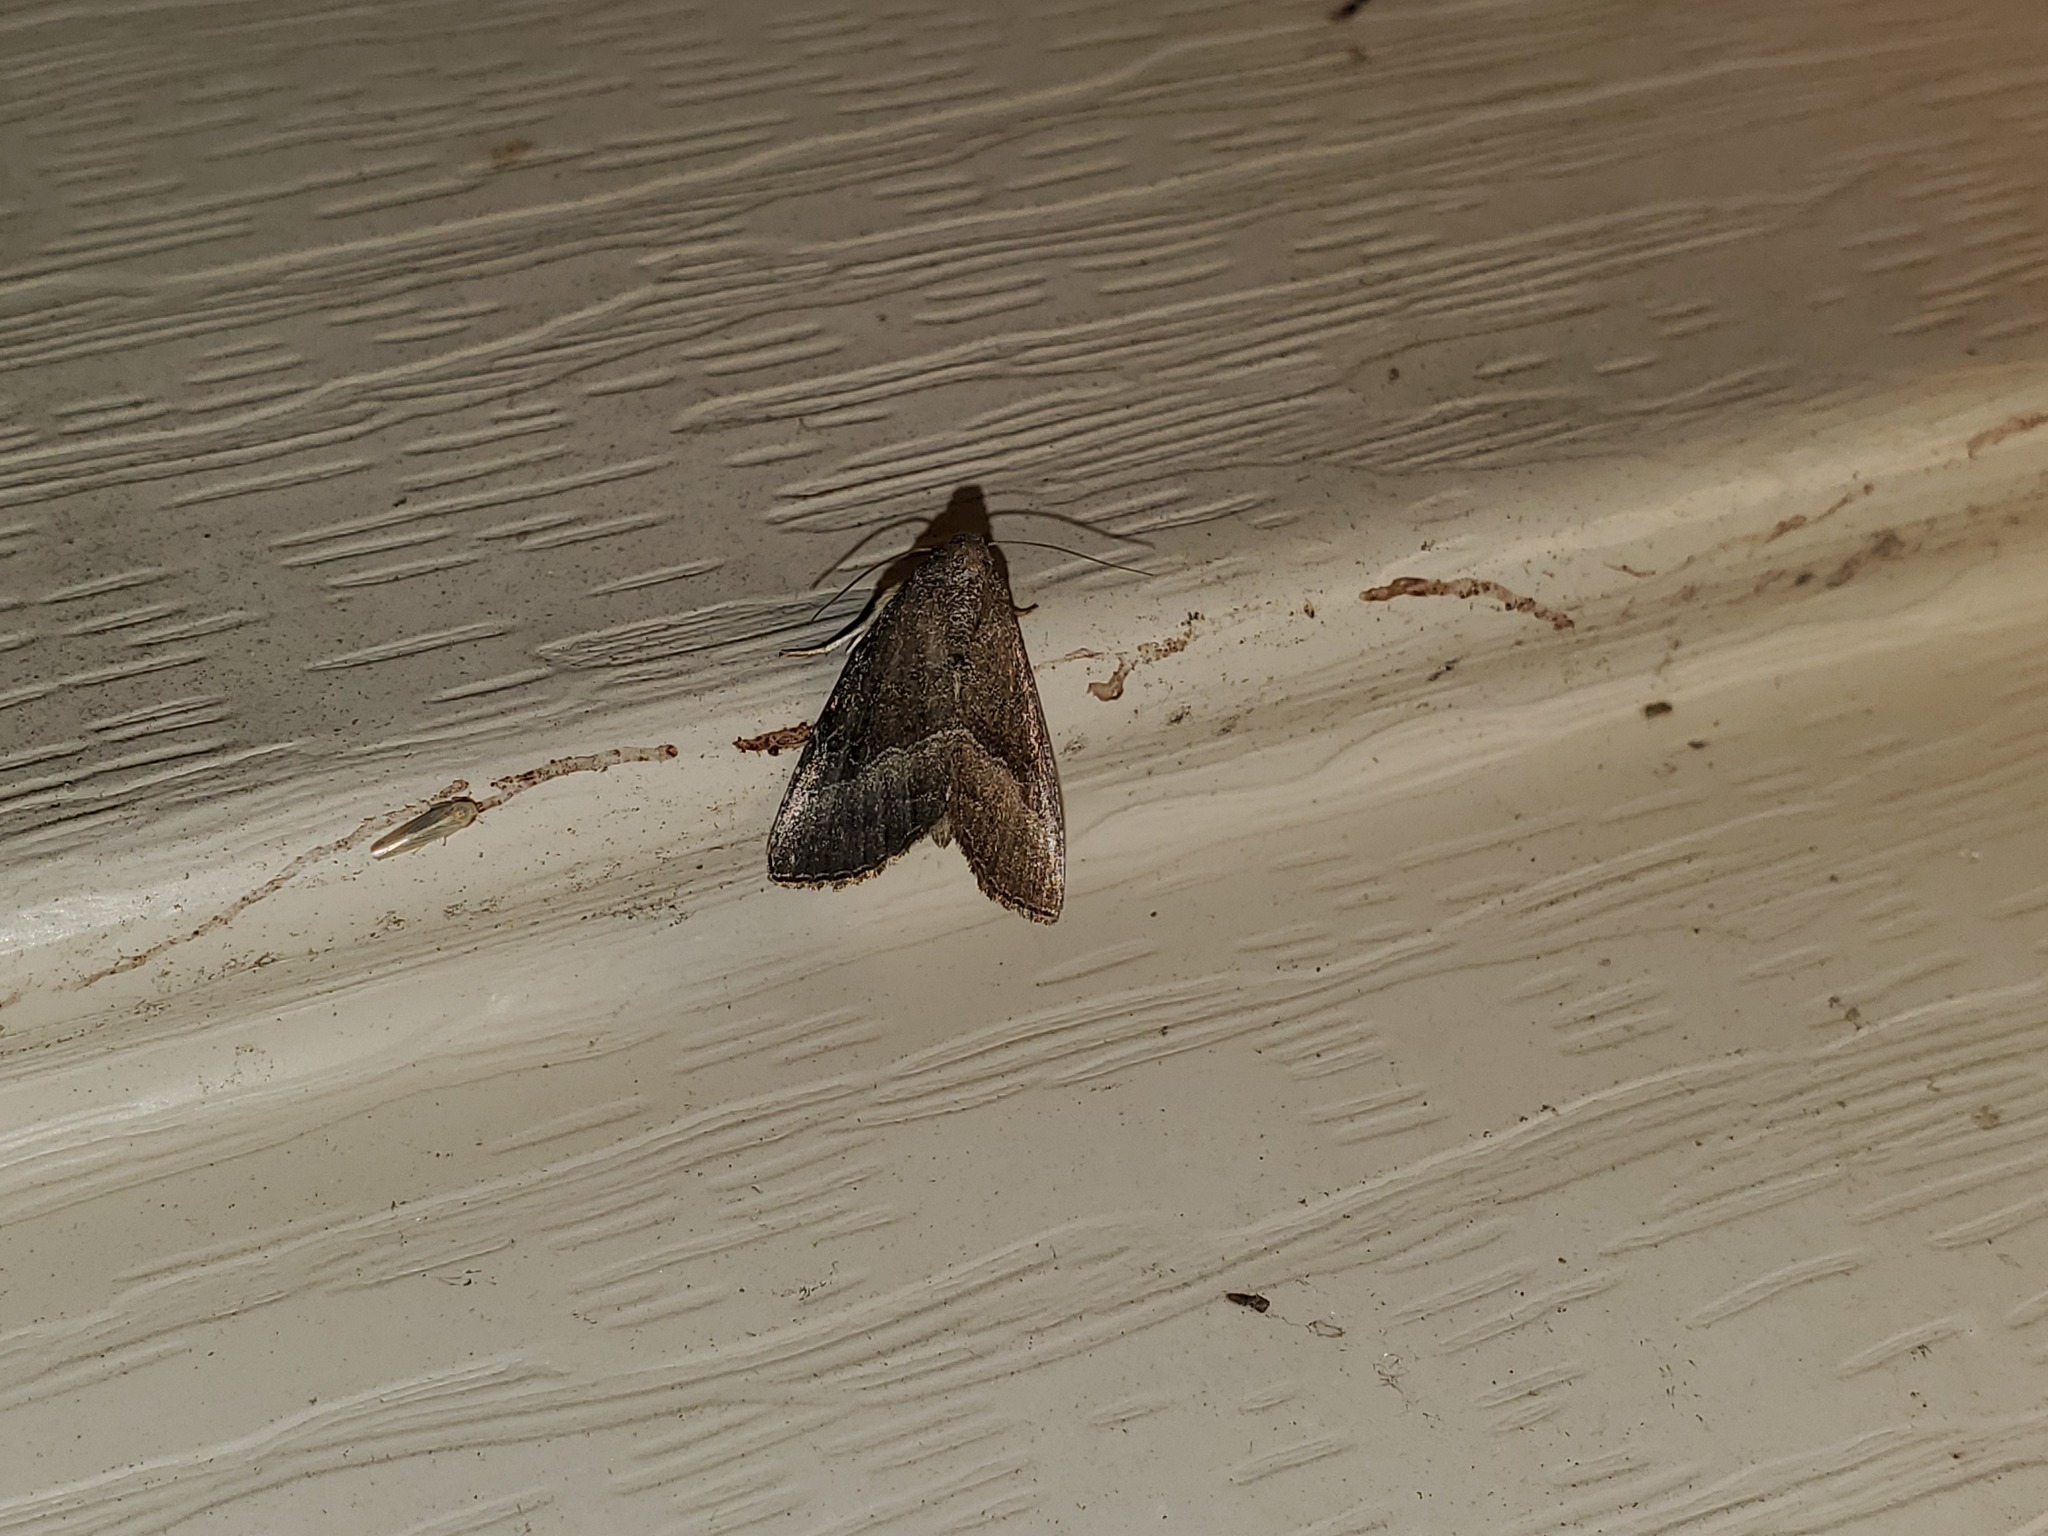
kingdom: Animalia
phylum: Arthropoda
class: Insecta
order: Lepidoptera
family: Noctuidae
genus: Ogdoconta
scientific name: Ogdoconta cinereola
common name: Common pinkband
